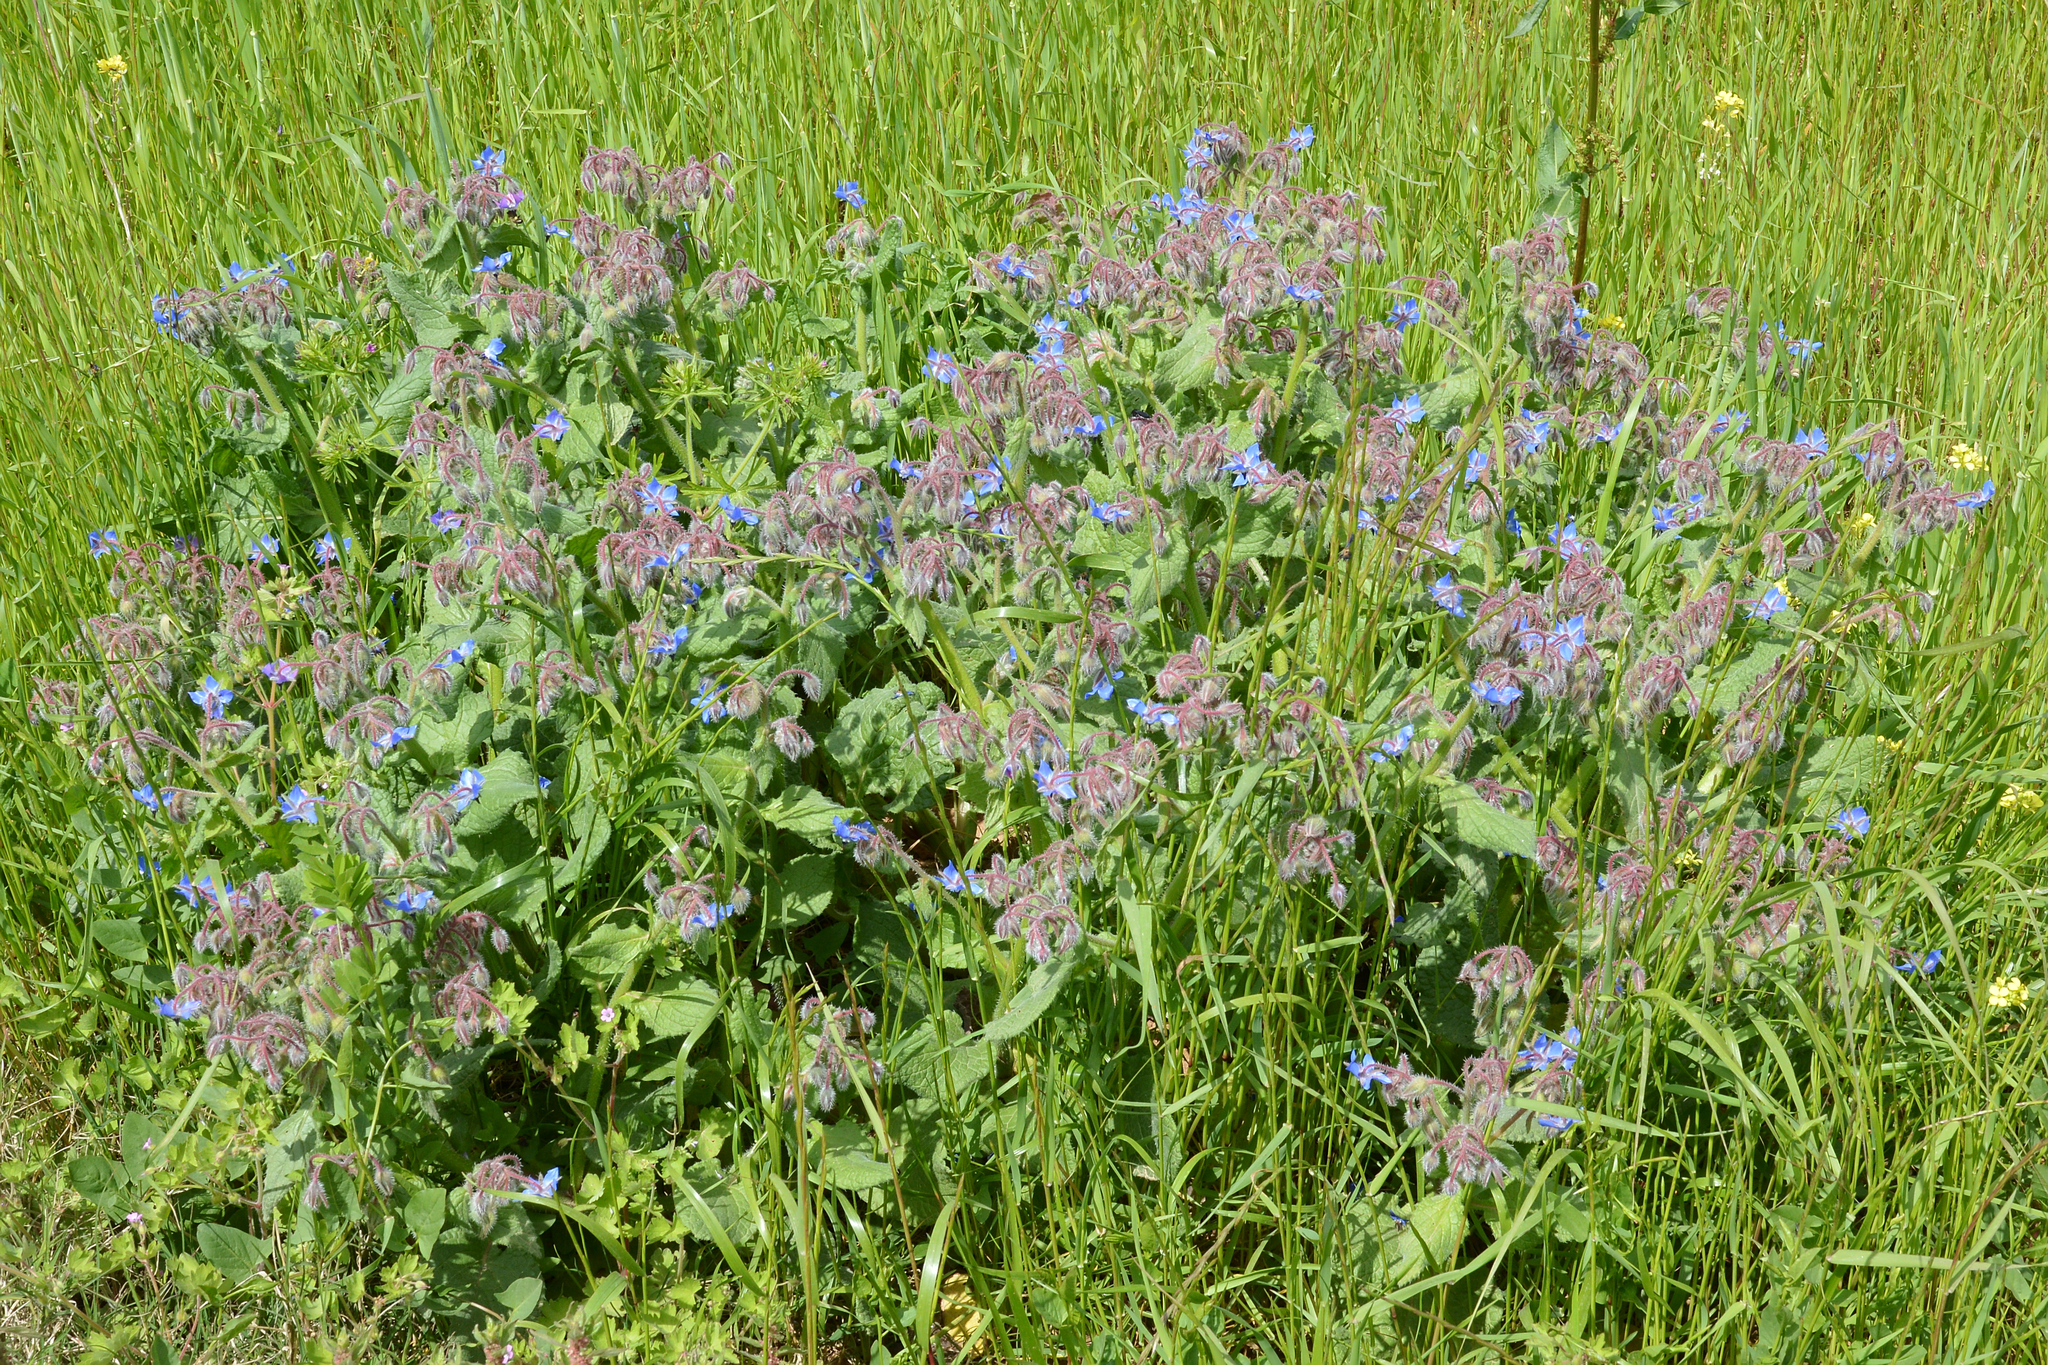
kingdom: Plantae
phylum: Tracheophyta
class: Magnoliopsida
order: Boraginales
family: Boraginaceae
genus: Borago
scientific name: Borago officinalis
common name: Borage
